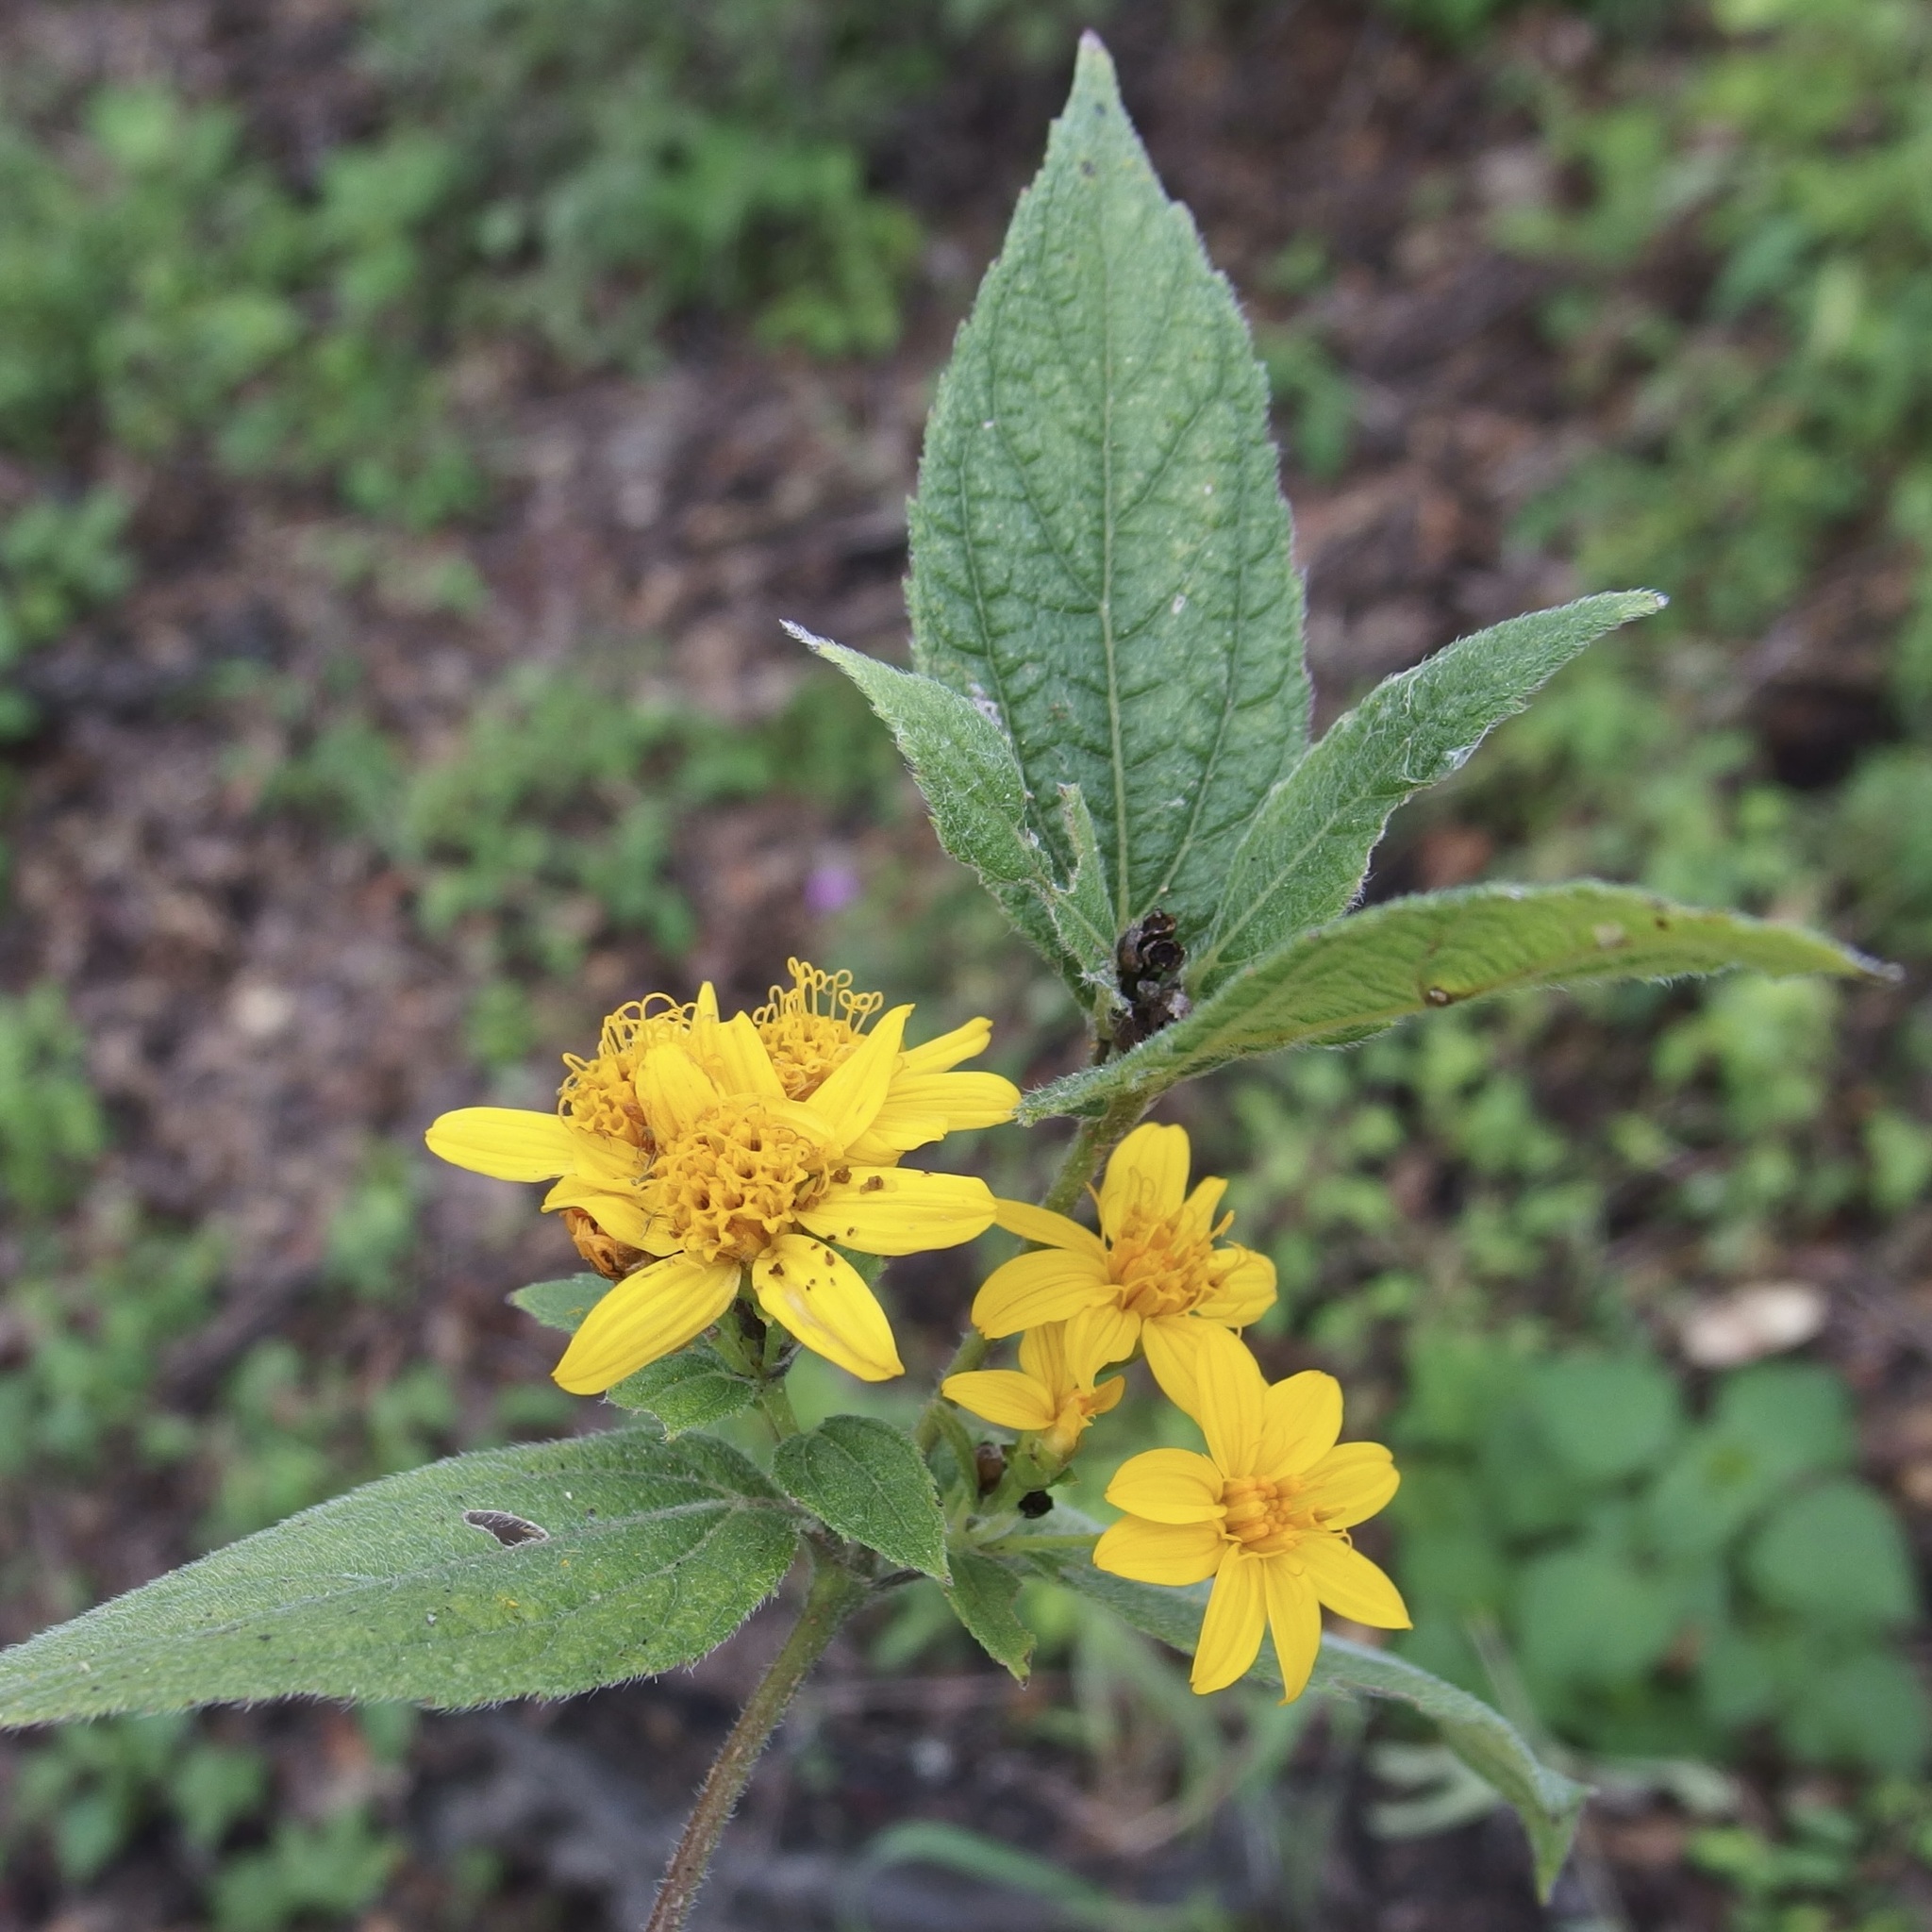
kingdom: Plantae
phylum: Tracheophyta
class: Magnoliopsida
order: Asterales
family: Asteraceae
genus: Lasianthaea
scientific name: Lasianthaea fruticosa
